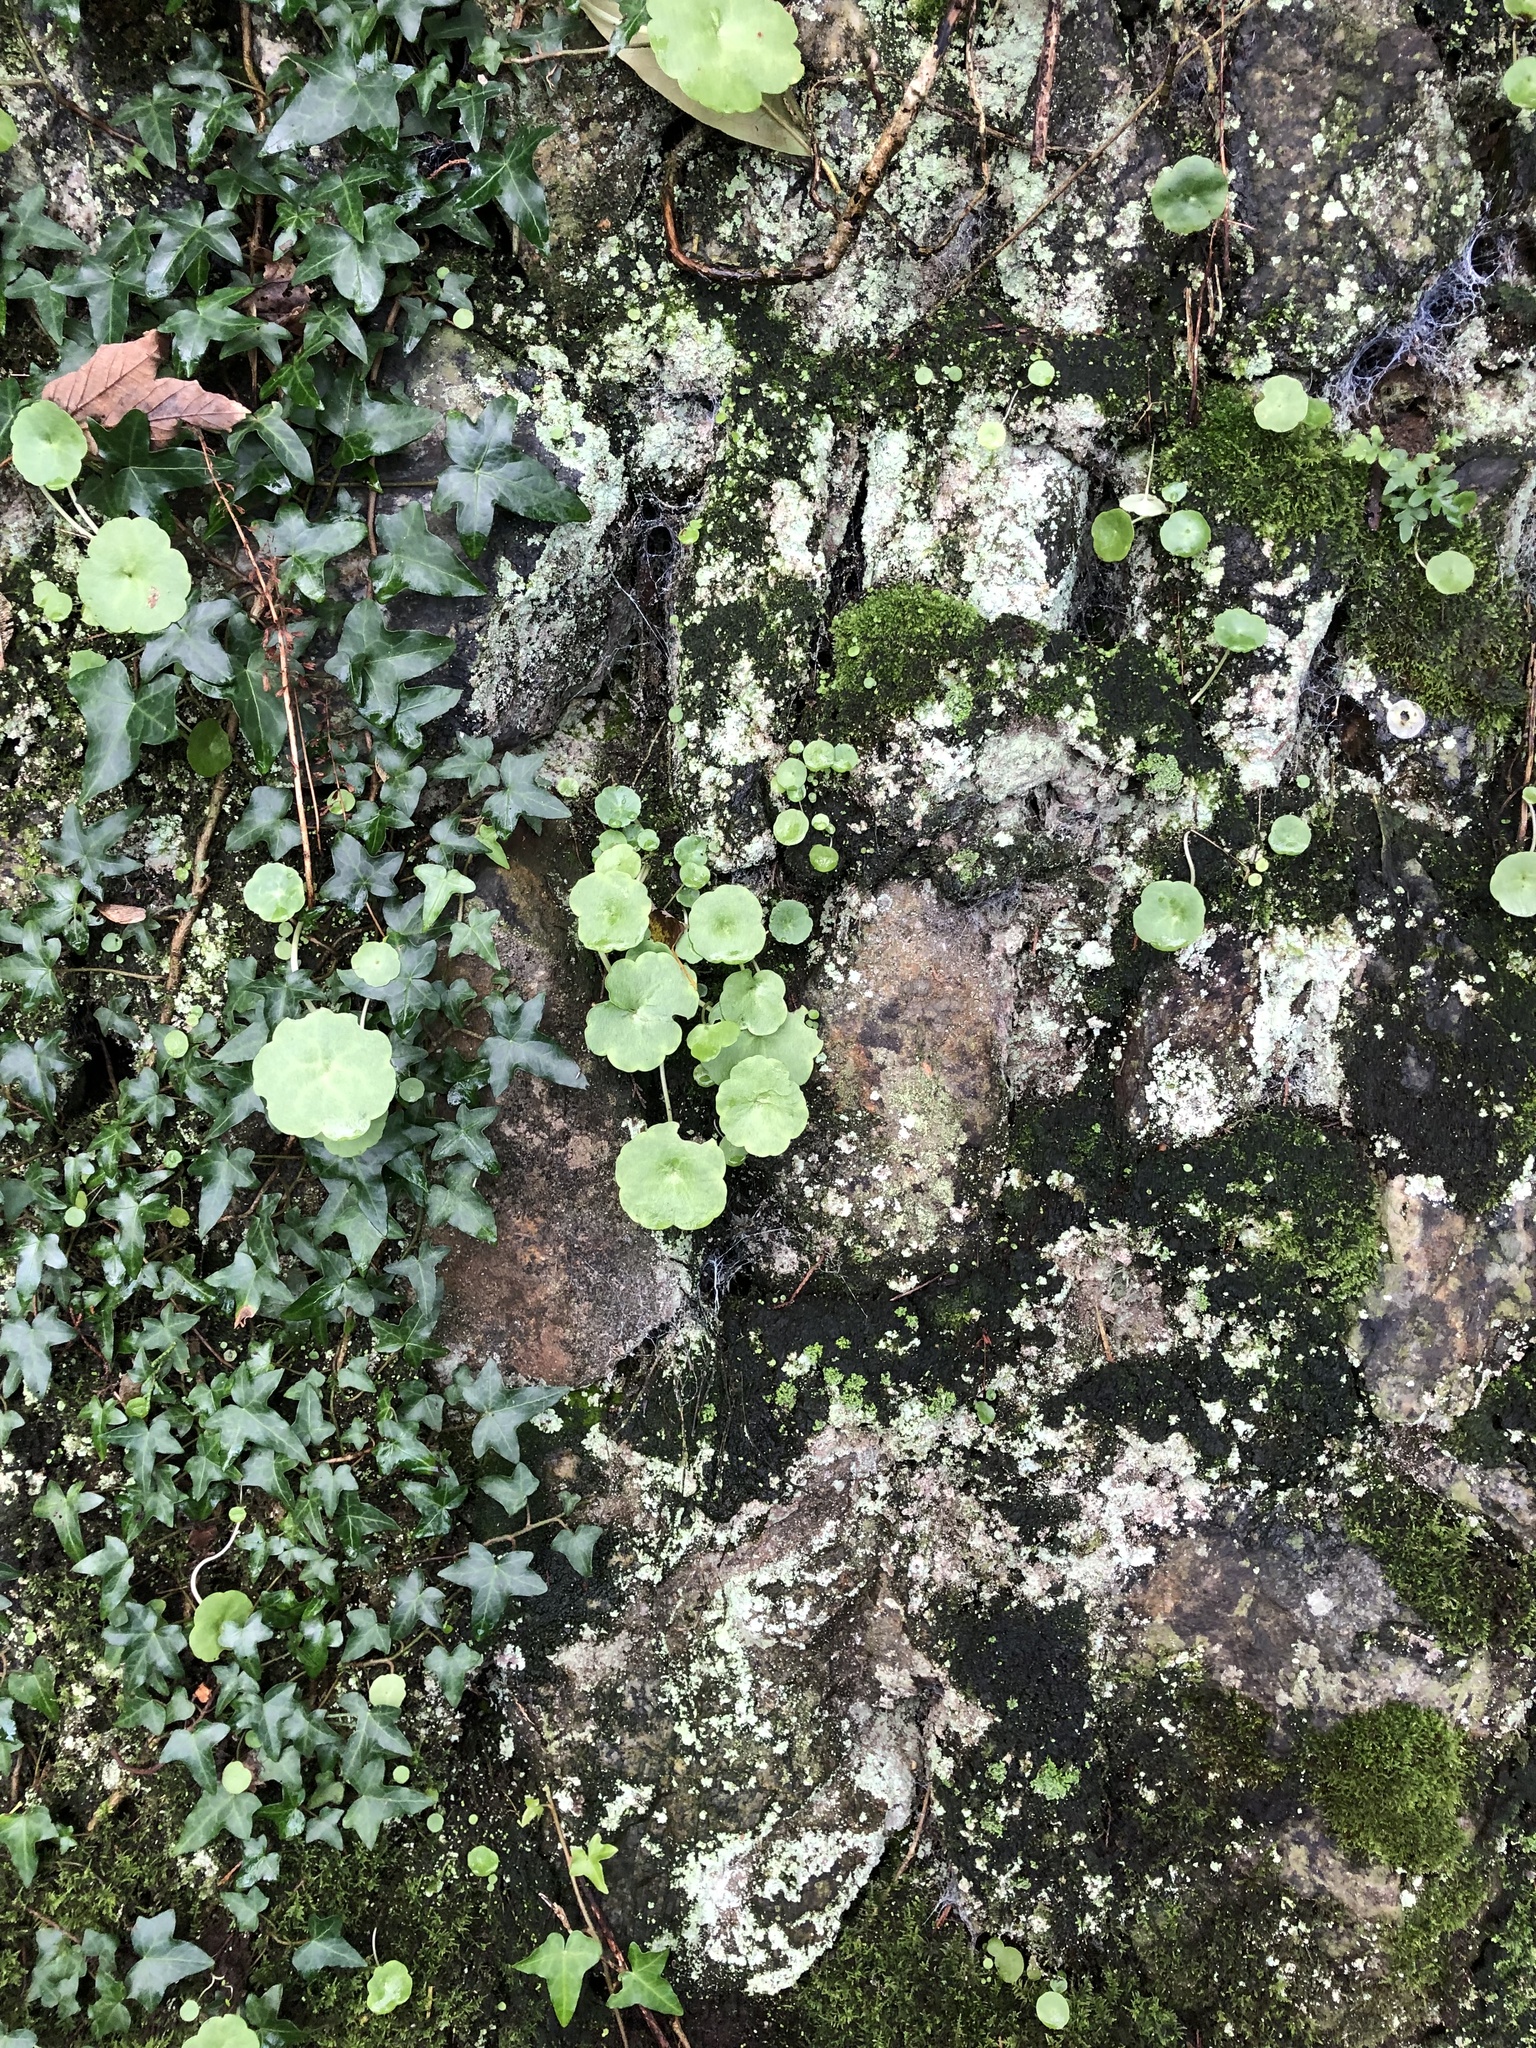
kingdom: Plantae
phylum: Tracheophyta
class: Magnoliopsida
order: Saxifragales
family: Crassulaceae
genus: Umbilicus
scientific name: Umbilicus rupestris
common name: Navelwort
